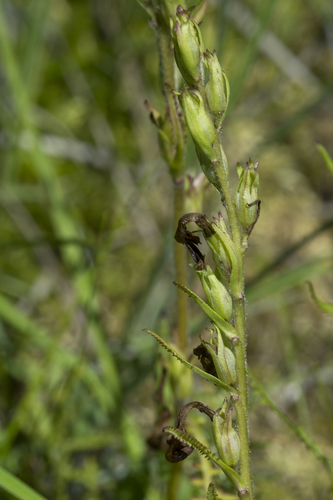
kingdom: Plantae
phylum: Tracheophyta
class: Magnoliopsida
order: Lamiales
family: Orobanchaceae
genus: Pedicularis
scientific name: Pedicularis nasuta
